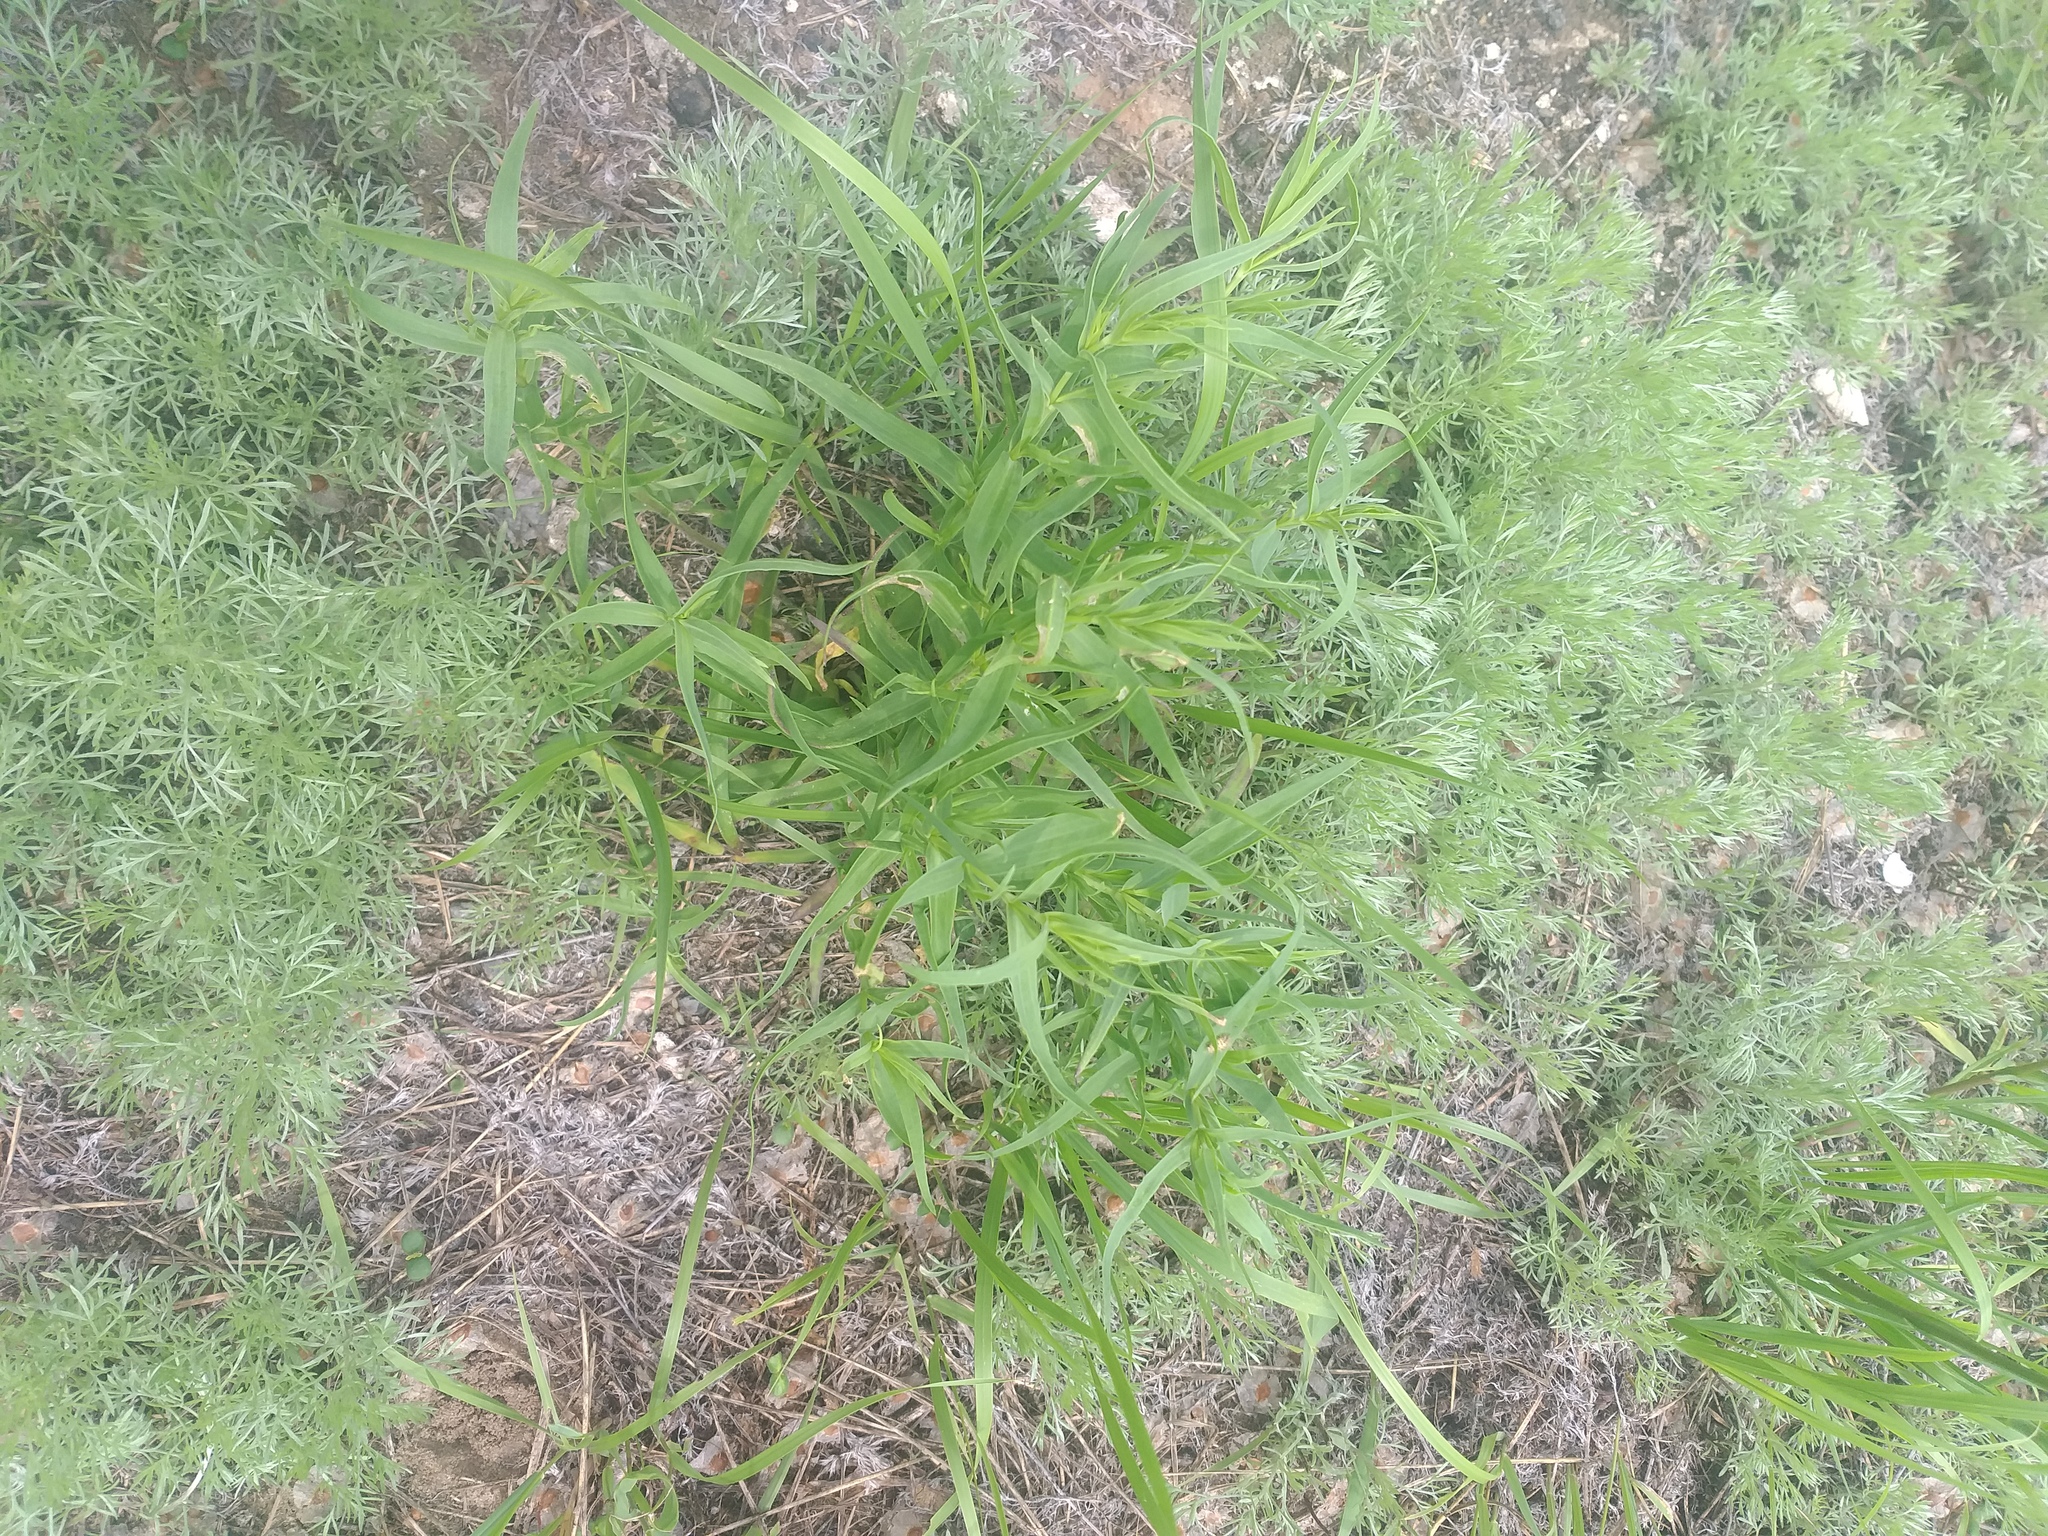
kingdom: Plantae
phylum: Tracheophyta
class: Magnoliopsida
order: Caryophyllales
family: Caryophyllaceae
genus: Gypsophila
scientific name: Gypsophila paniculata
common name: Baby's-breath
